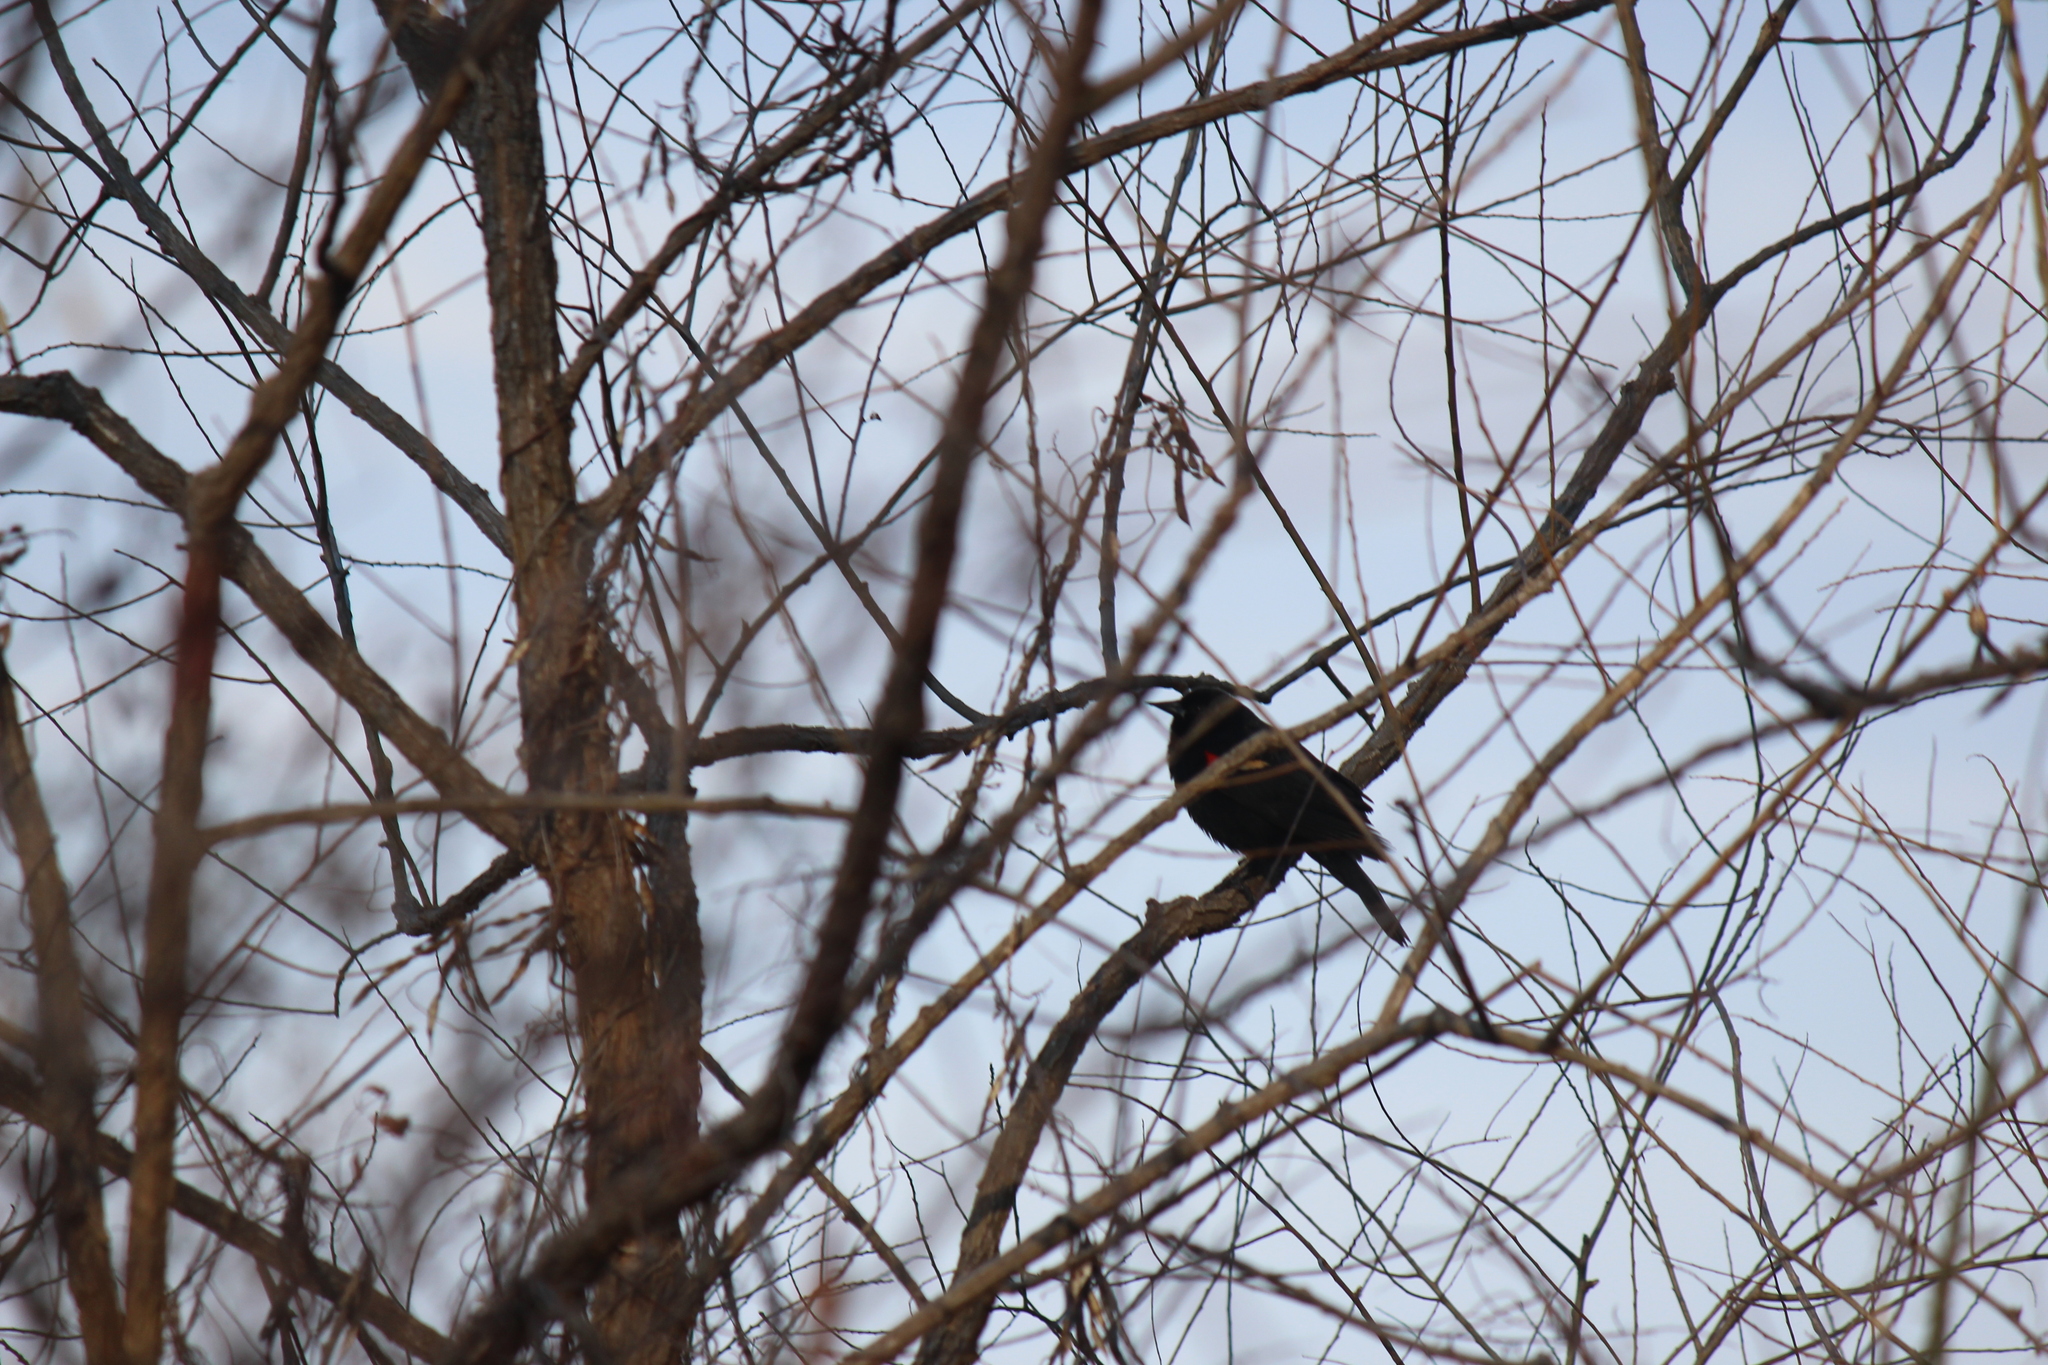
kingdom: Animalia
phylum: Chordata
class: Aves
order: Passeriformes
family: Icteridae
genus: Agelaius
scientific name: Agelaius phoeniceus
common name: Red-winged blackbird
